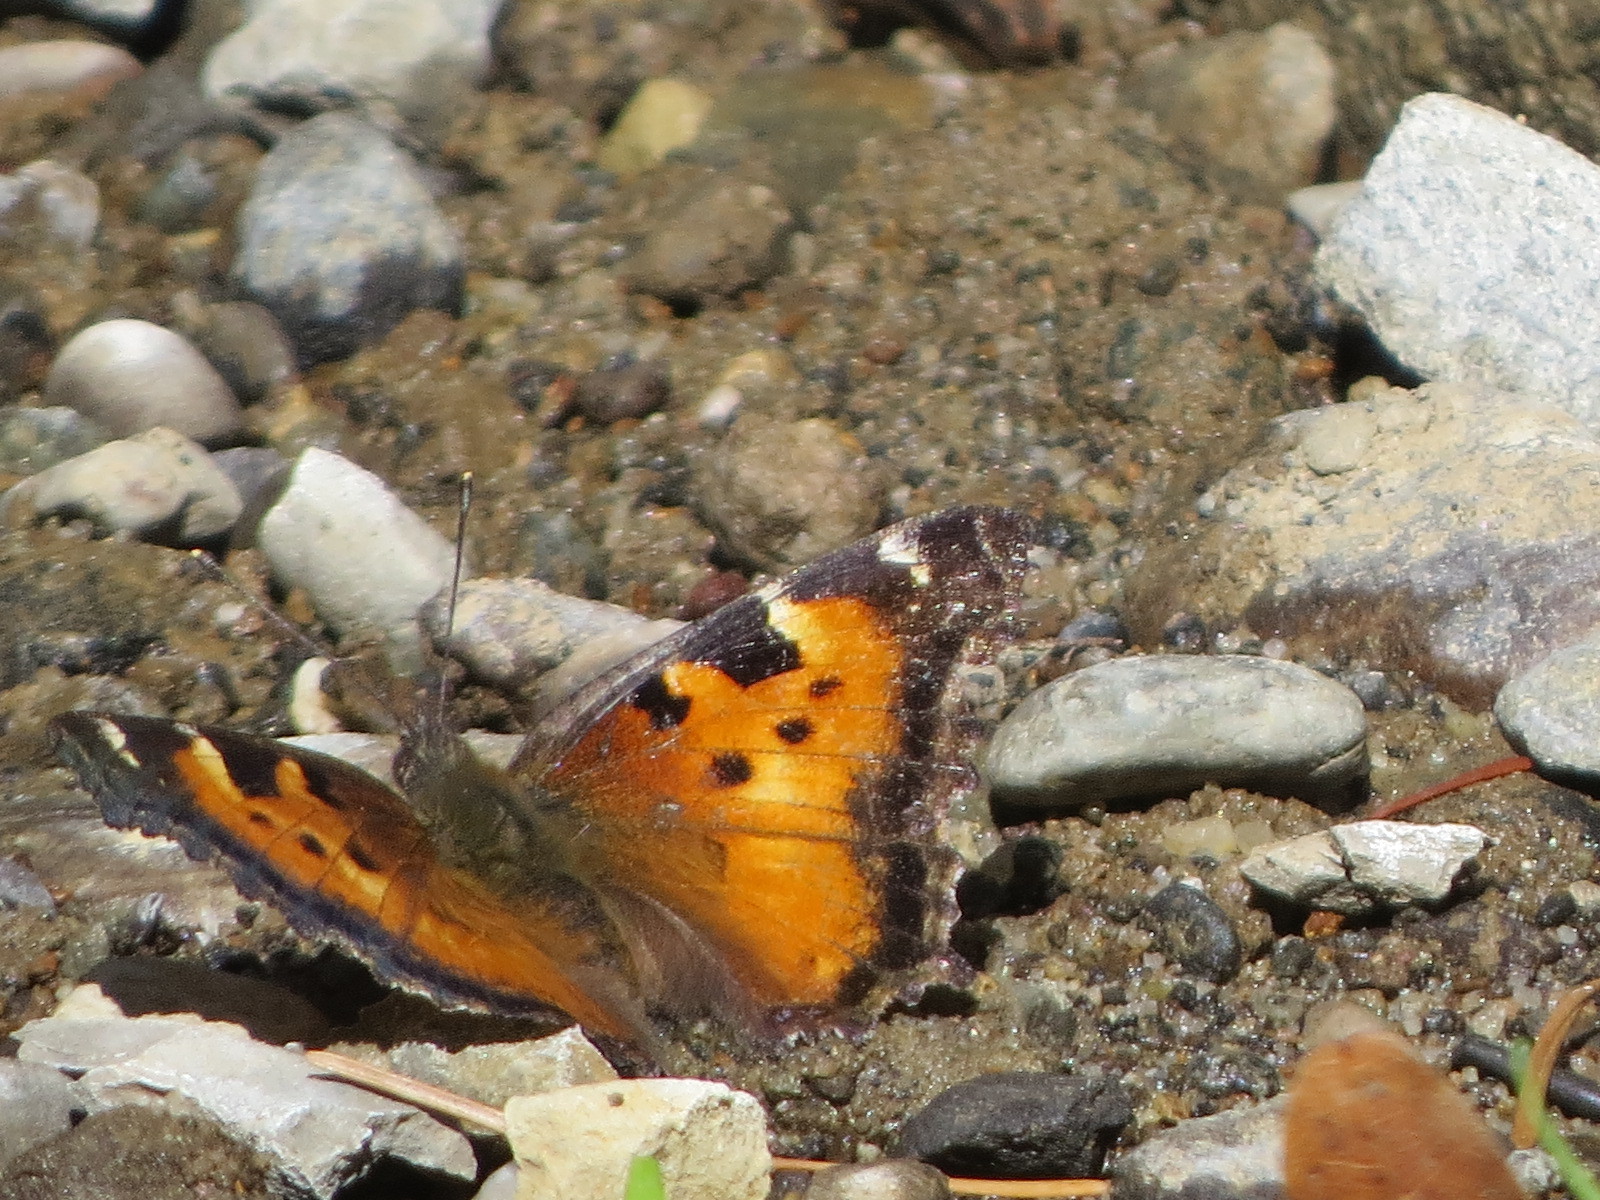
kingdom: Animalia
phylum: Arthropoda
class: Insecta
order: Lepidoptera
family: Nymphalidae
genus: Nymphalis
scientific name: Nymphalis californica
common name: California tortoiseshell
